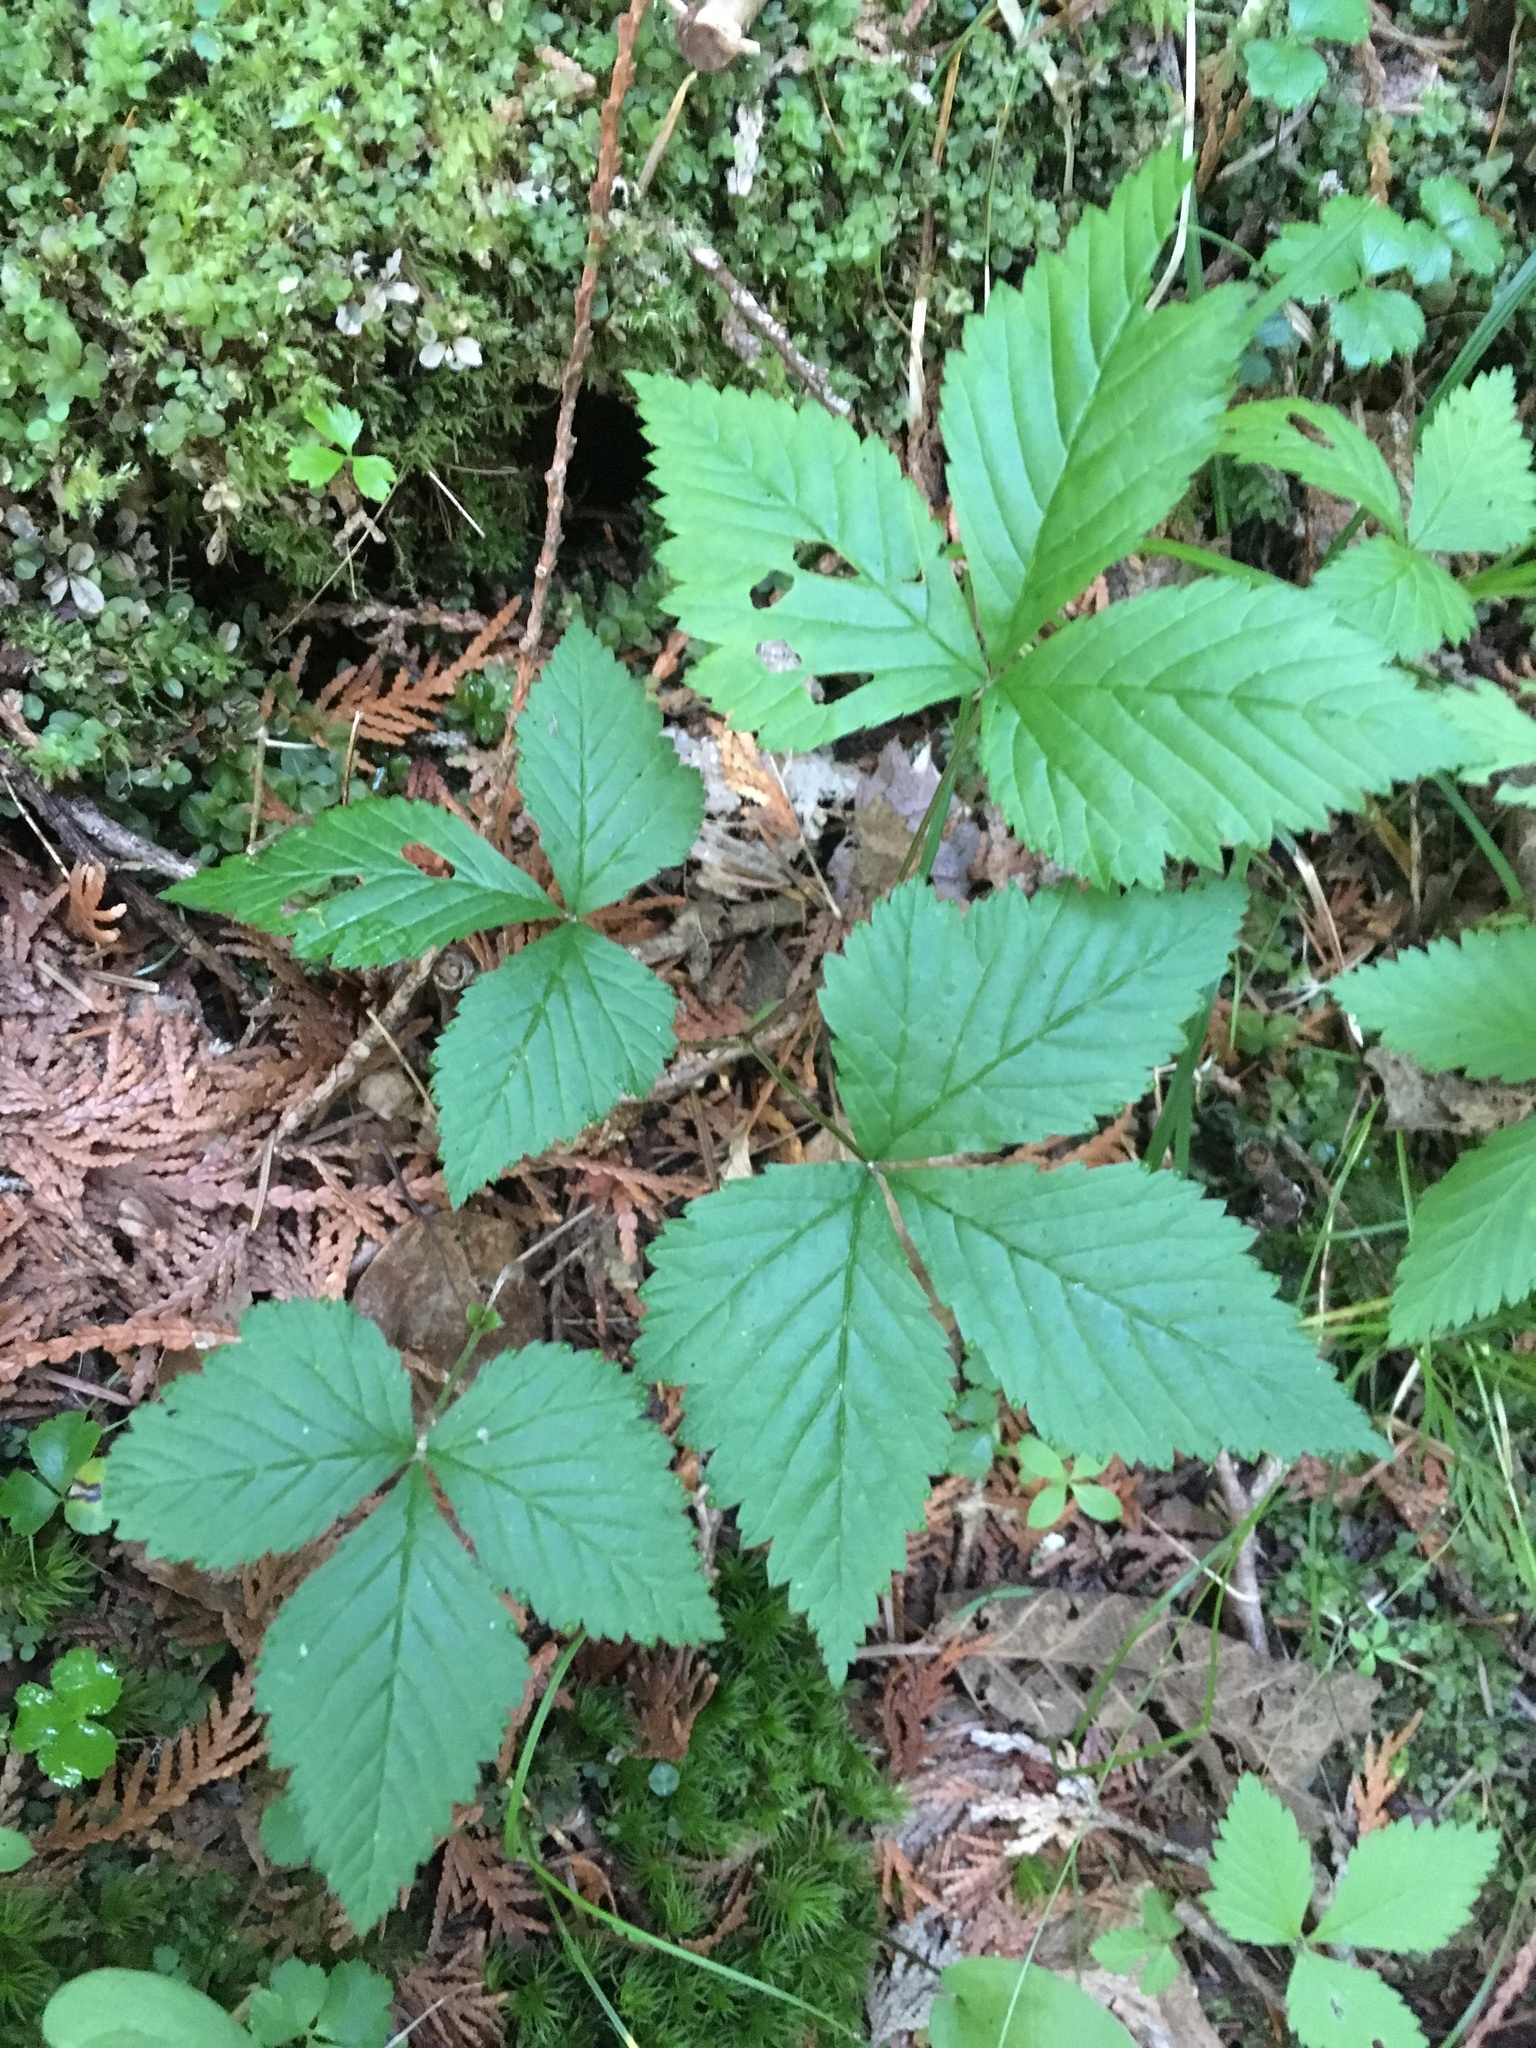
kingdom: Plantae
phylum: Tracheophyta
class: Magnoliopsida
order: Rosales
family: Rosaceae
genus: Rubus
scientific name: Rubus pubescens
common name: Dwarf raspberry
